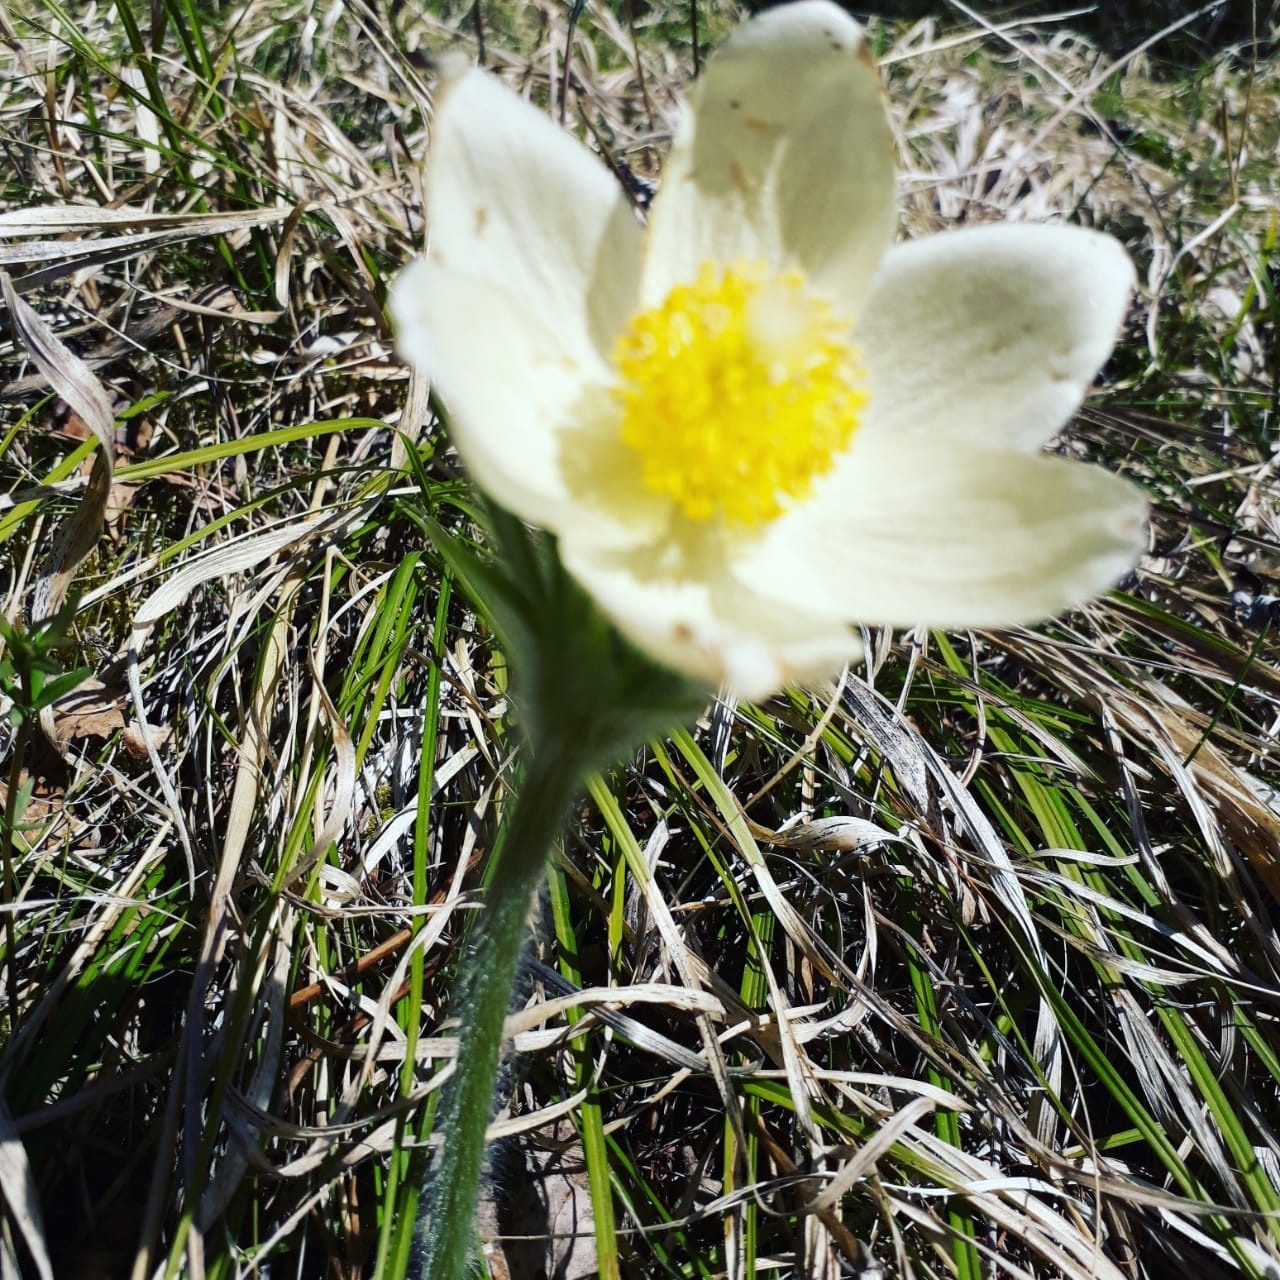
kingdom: Plantae
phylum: Tracheophyta
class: Magnoliopsida
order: Ranunculales
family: Ranunculaceae
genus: Pulsatilla
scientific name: Pulsatilla patens
